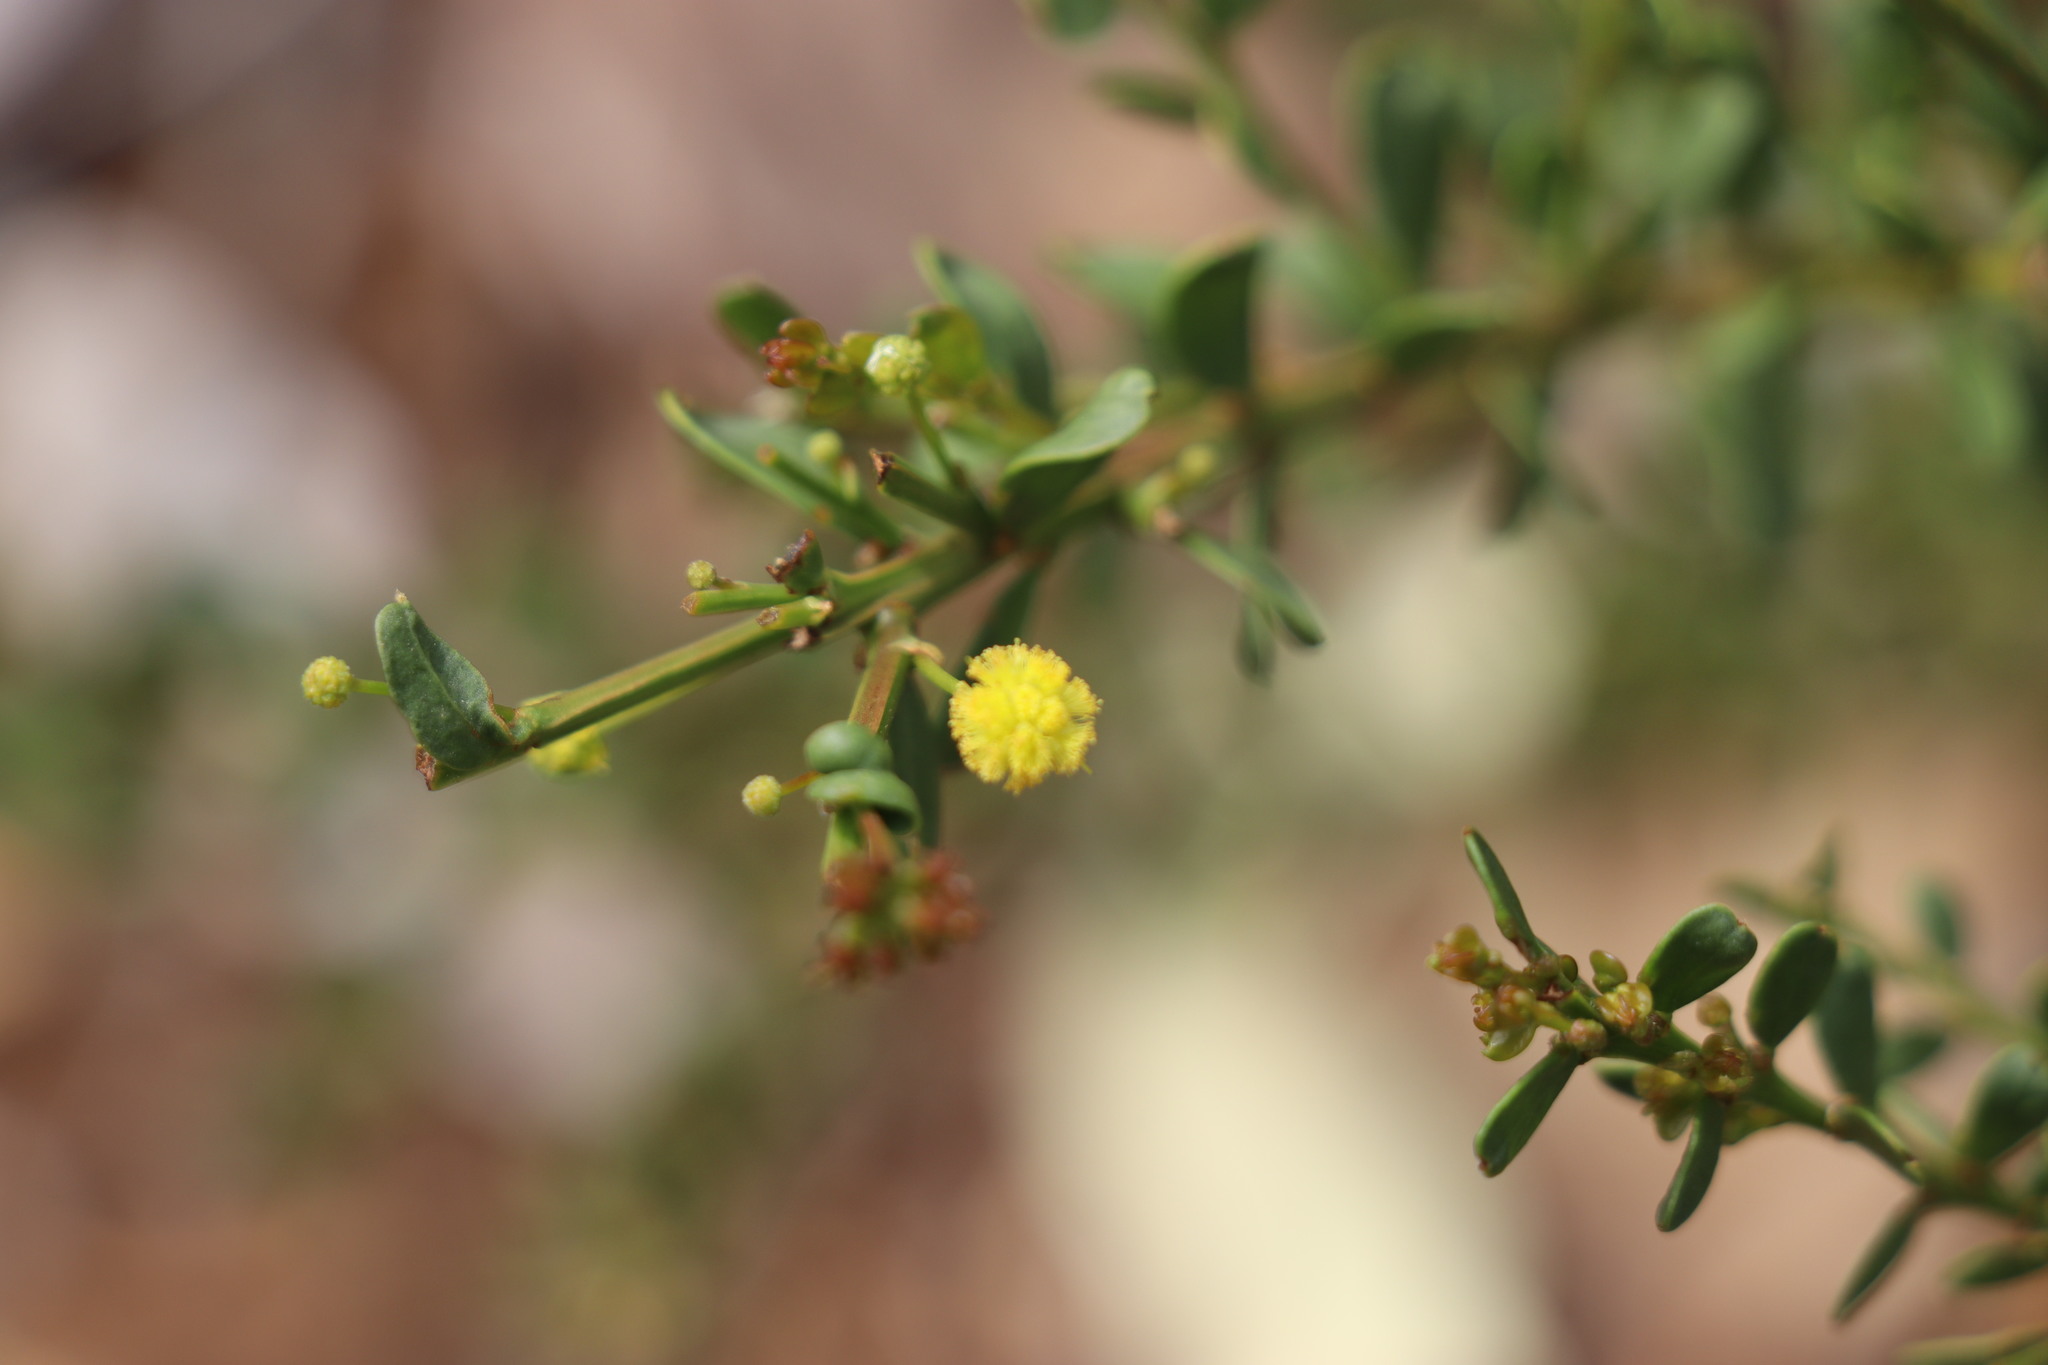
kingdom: Plantae
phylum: Tracheophyta
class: Magnoliopsida
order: Fabales
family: Fabaceae
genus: Acacia
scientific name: Acacia acinacea
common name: Gold-dust acacia
